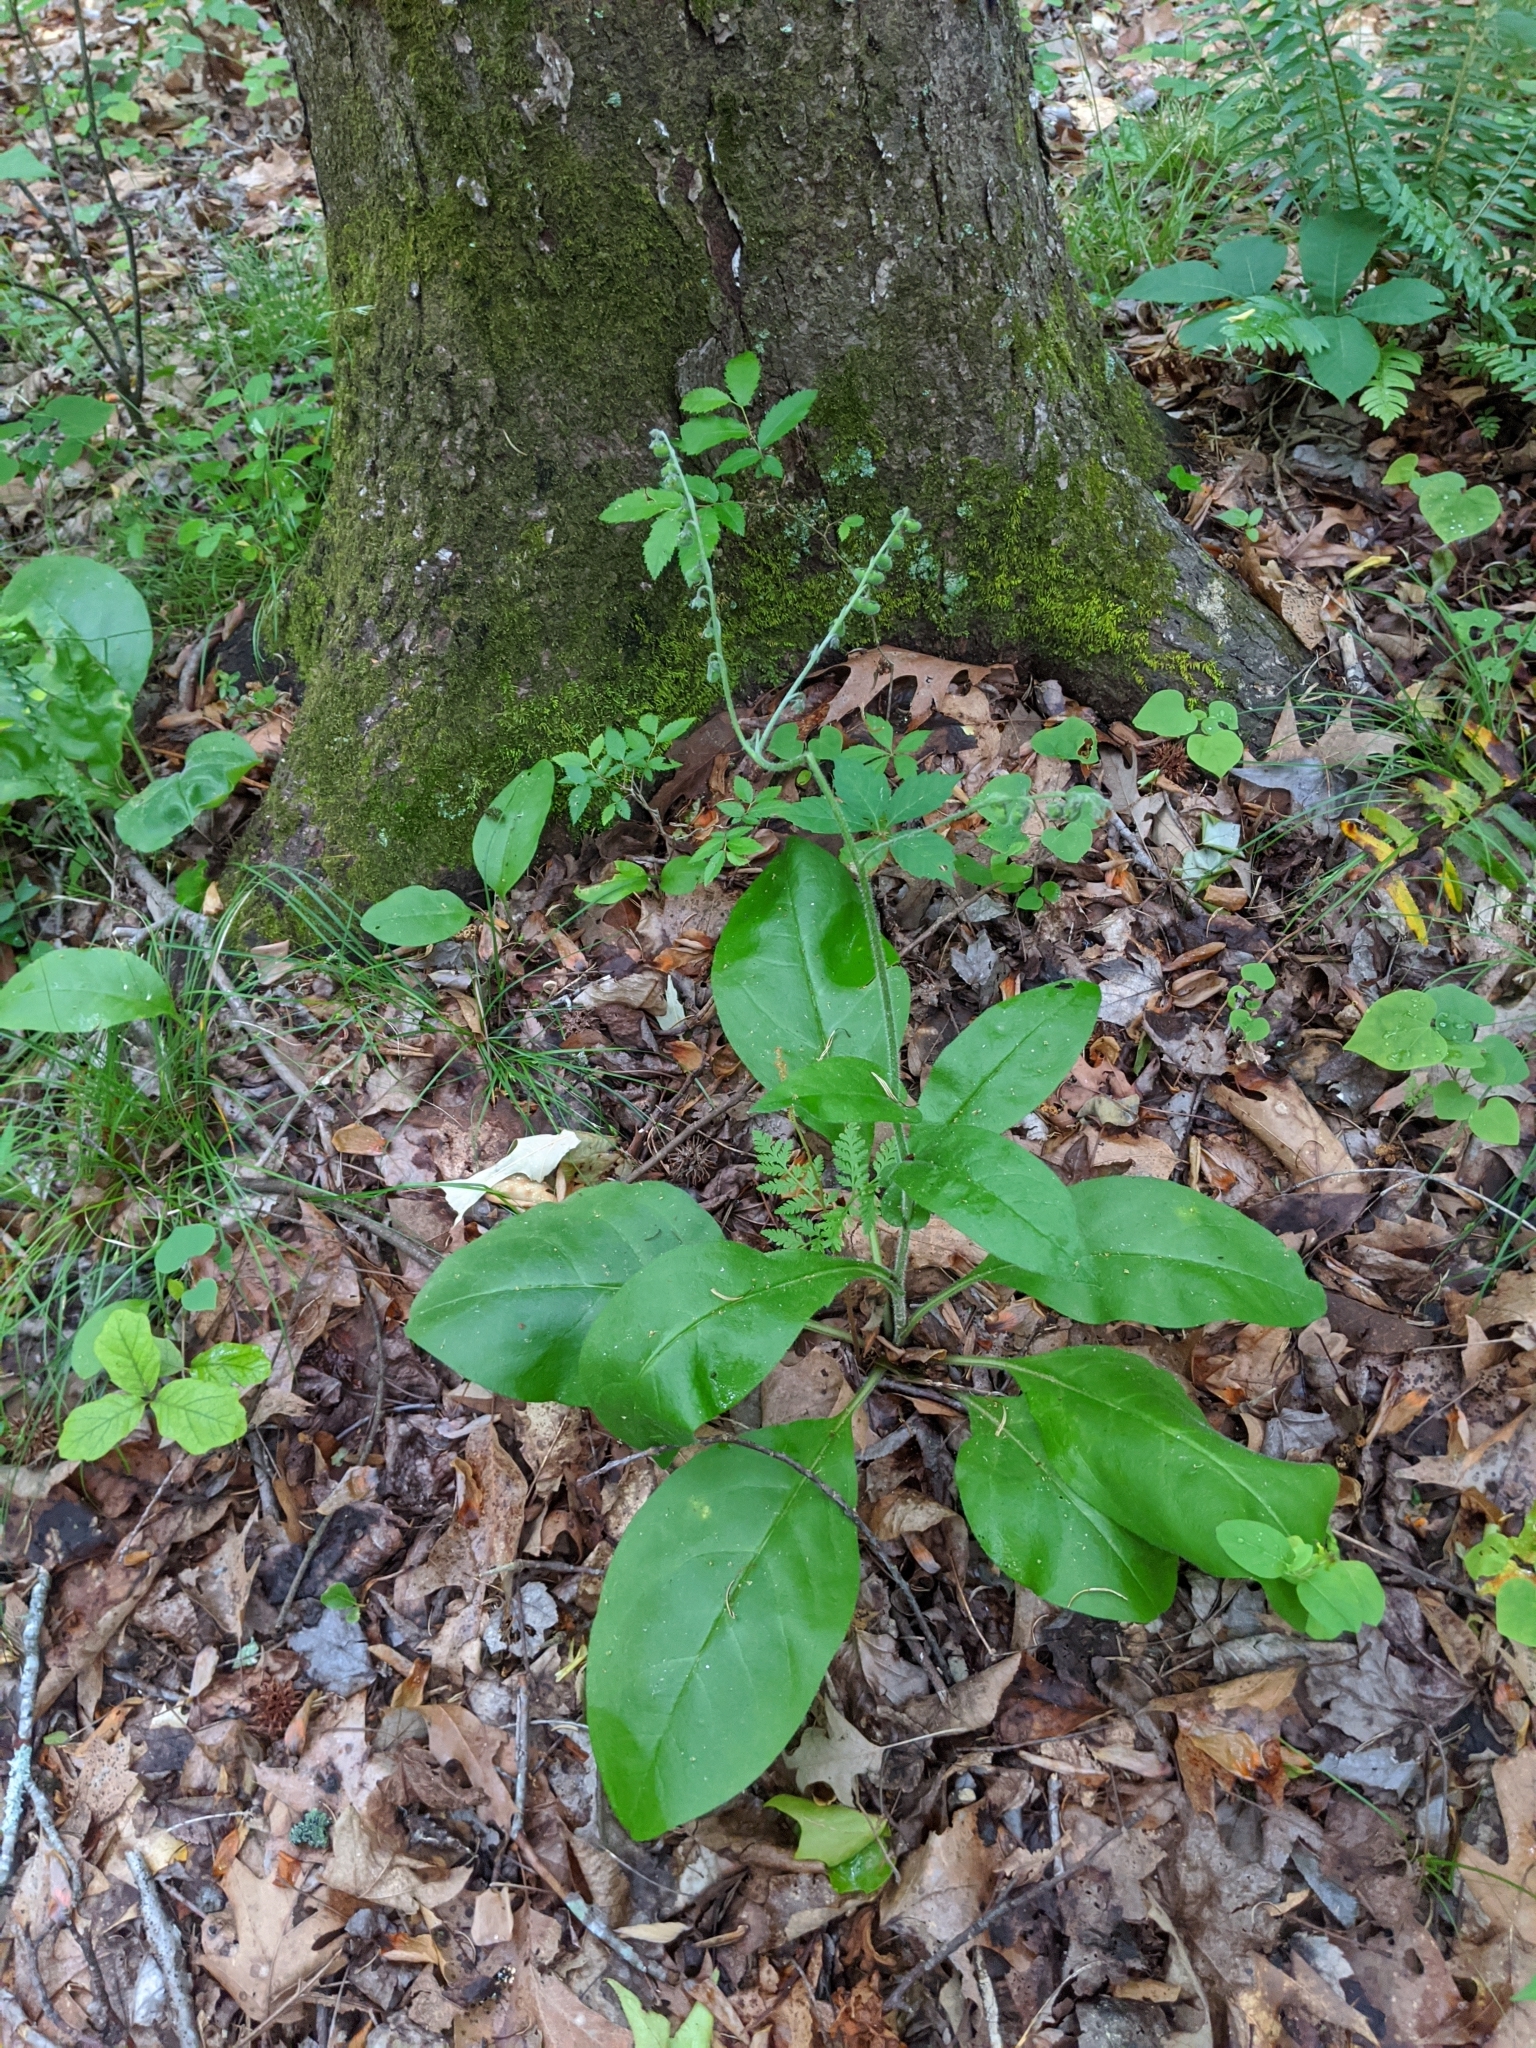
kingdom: Plantae
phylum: Tracheophyta
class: Magnoliopsida
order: Boraginales
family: Boraginaceae
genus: Andersonglossum
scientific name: Andersonglossum virginianum
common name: Wild comfrey
